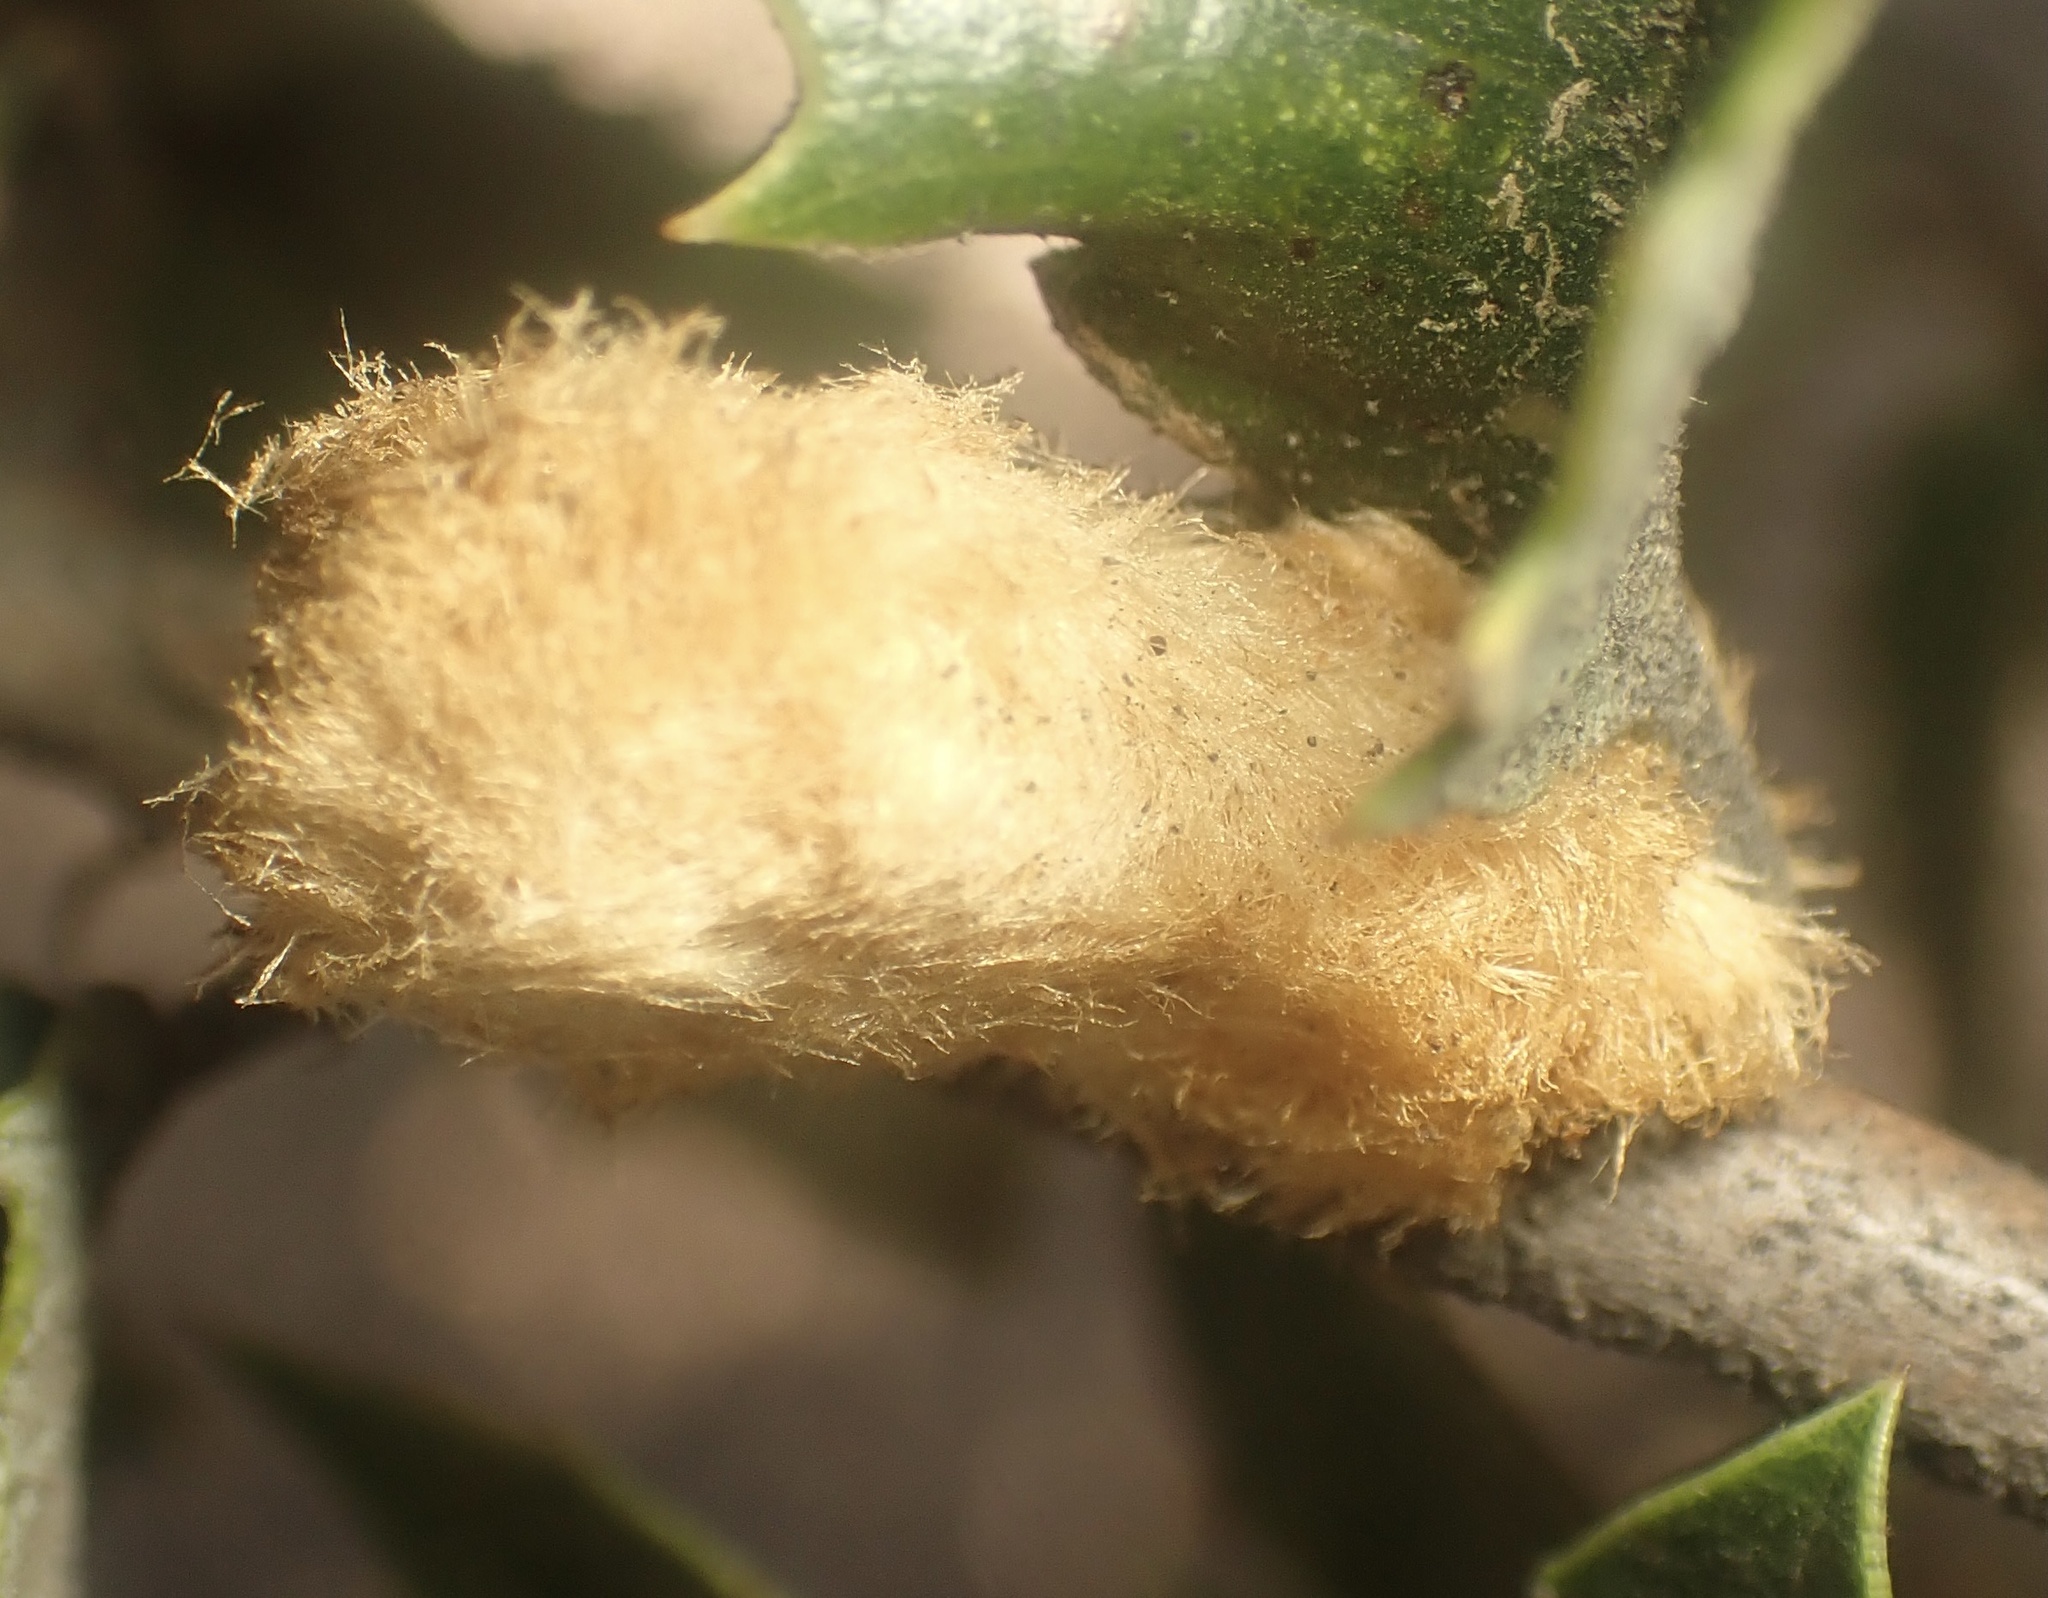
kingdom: Animalia
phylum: Arthropoda
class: Insecta
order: Hymenoptera
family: Cynipidae
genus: Heteroecus
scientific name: Heteroecus
